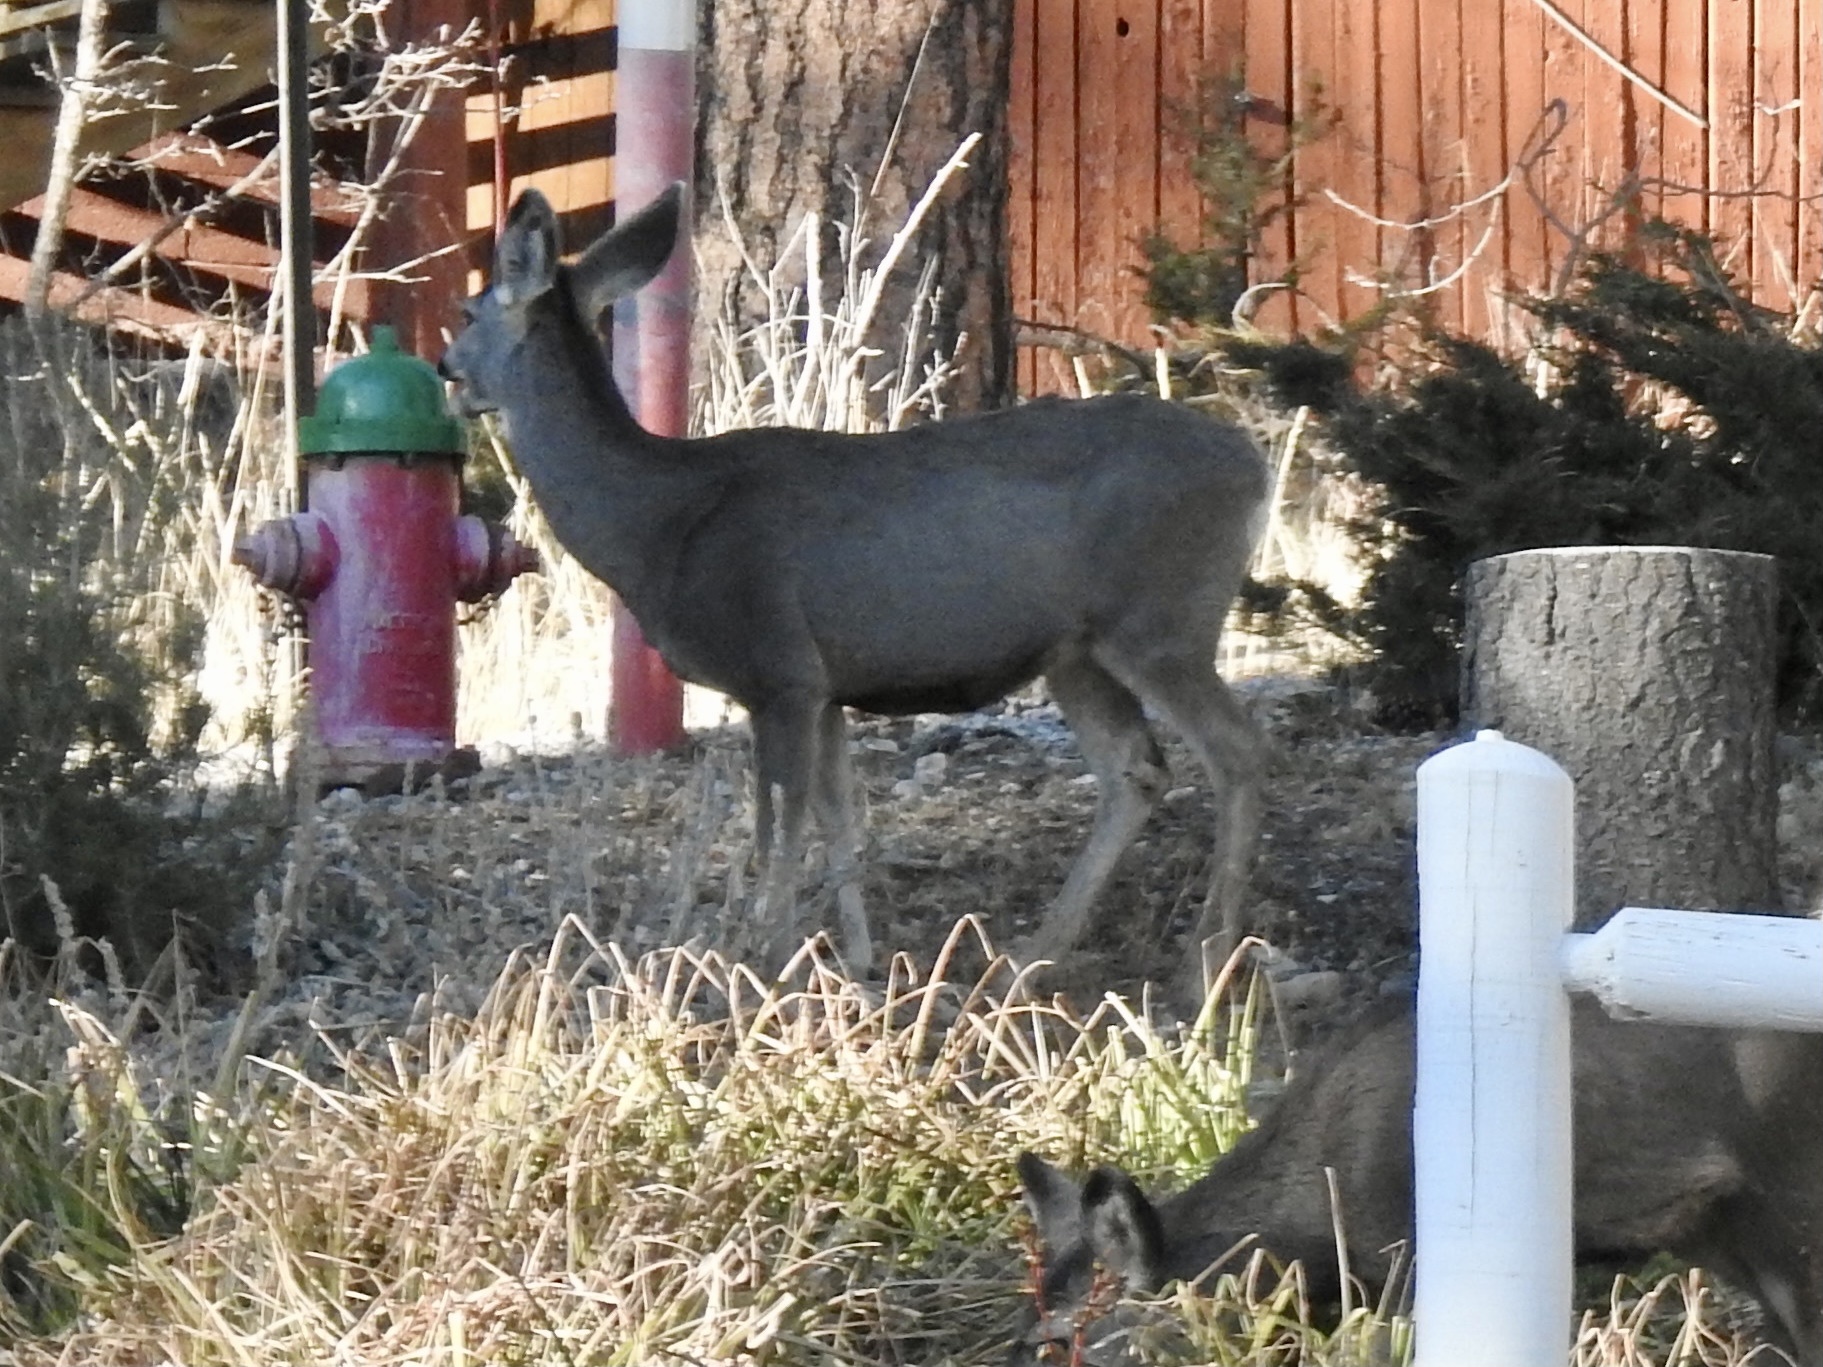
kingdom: Animalia
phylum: Chordata
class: Mammalia
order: Artiodactyla
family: Cervidae
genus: Odocoileus
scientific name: Odocoileus hemionus
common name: Mule deer
